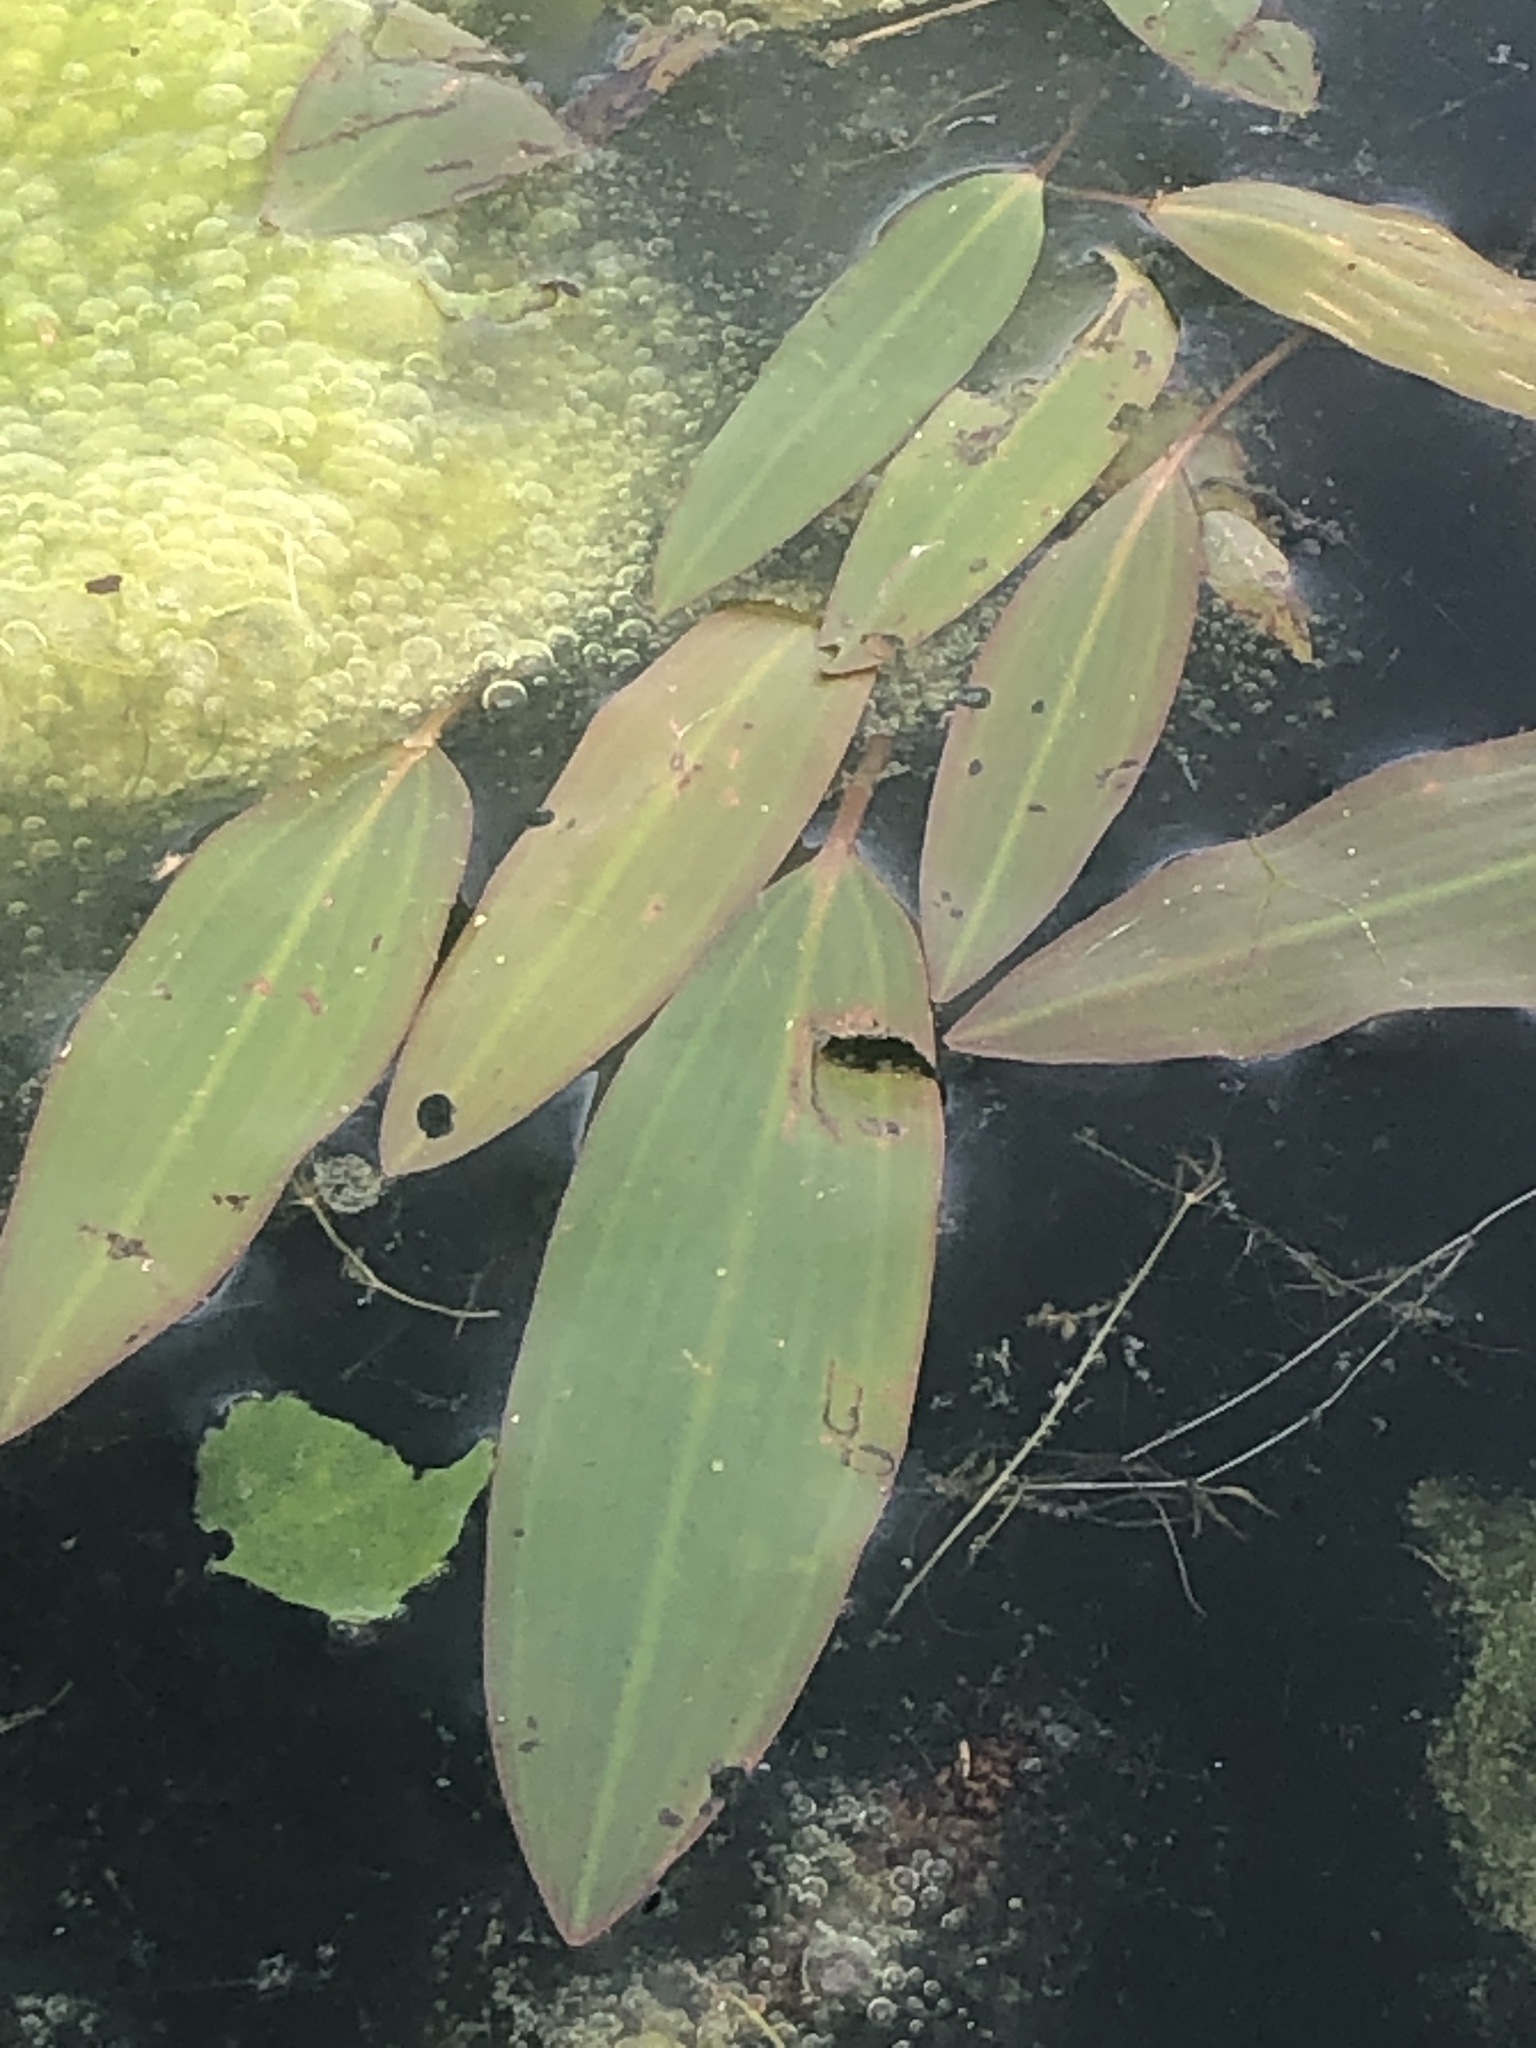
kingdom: Plantae
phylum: Tracheophyta
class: Liliopsida
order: Alismatales
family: Potamogetonaceae
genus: Potamogeton
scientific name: Potamogeton nodosus
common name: Loddon pondweed
